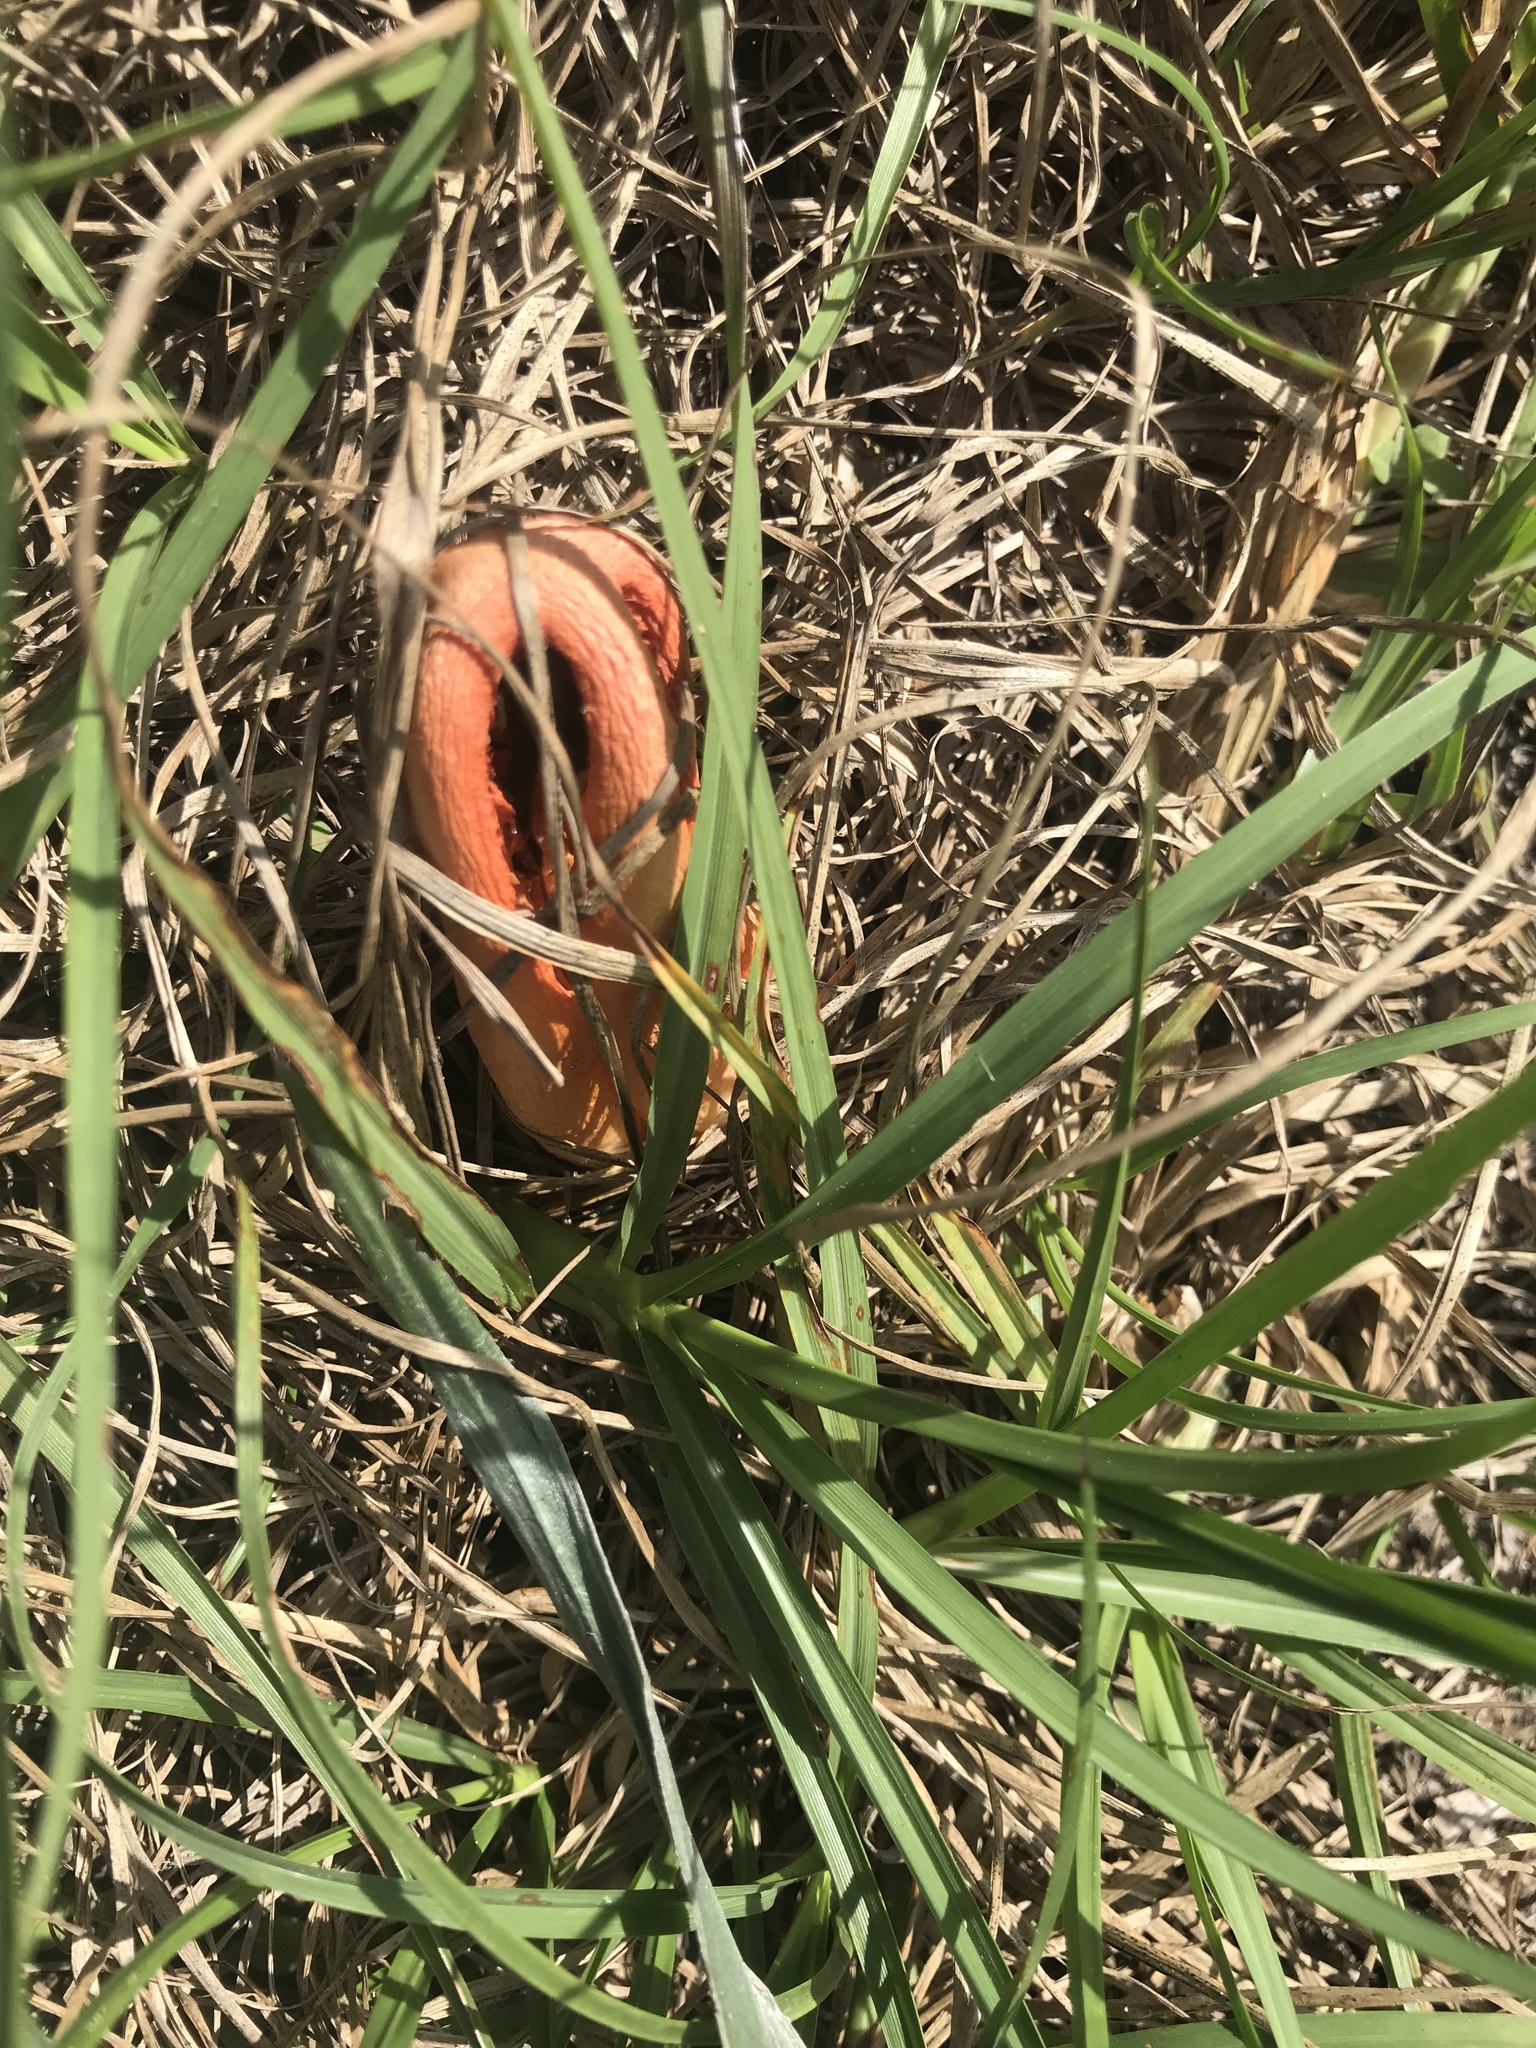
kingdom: Fungi
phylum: Basidiomycota
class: Agaricomycetes
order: Phallales
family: Phallaceae
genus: Clathrus
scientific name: Clathrus columnatus
